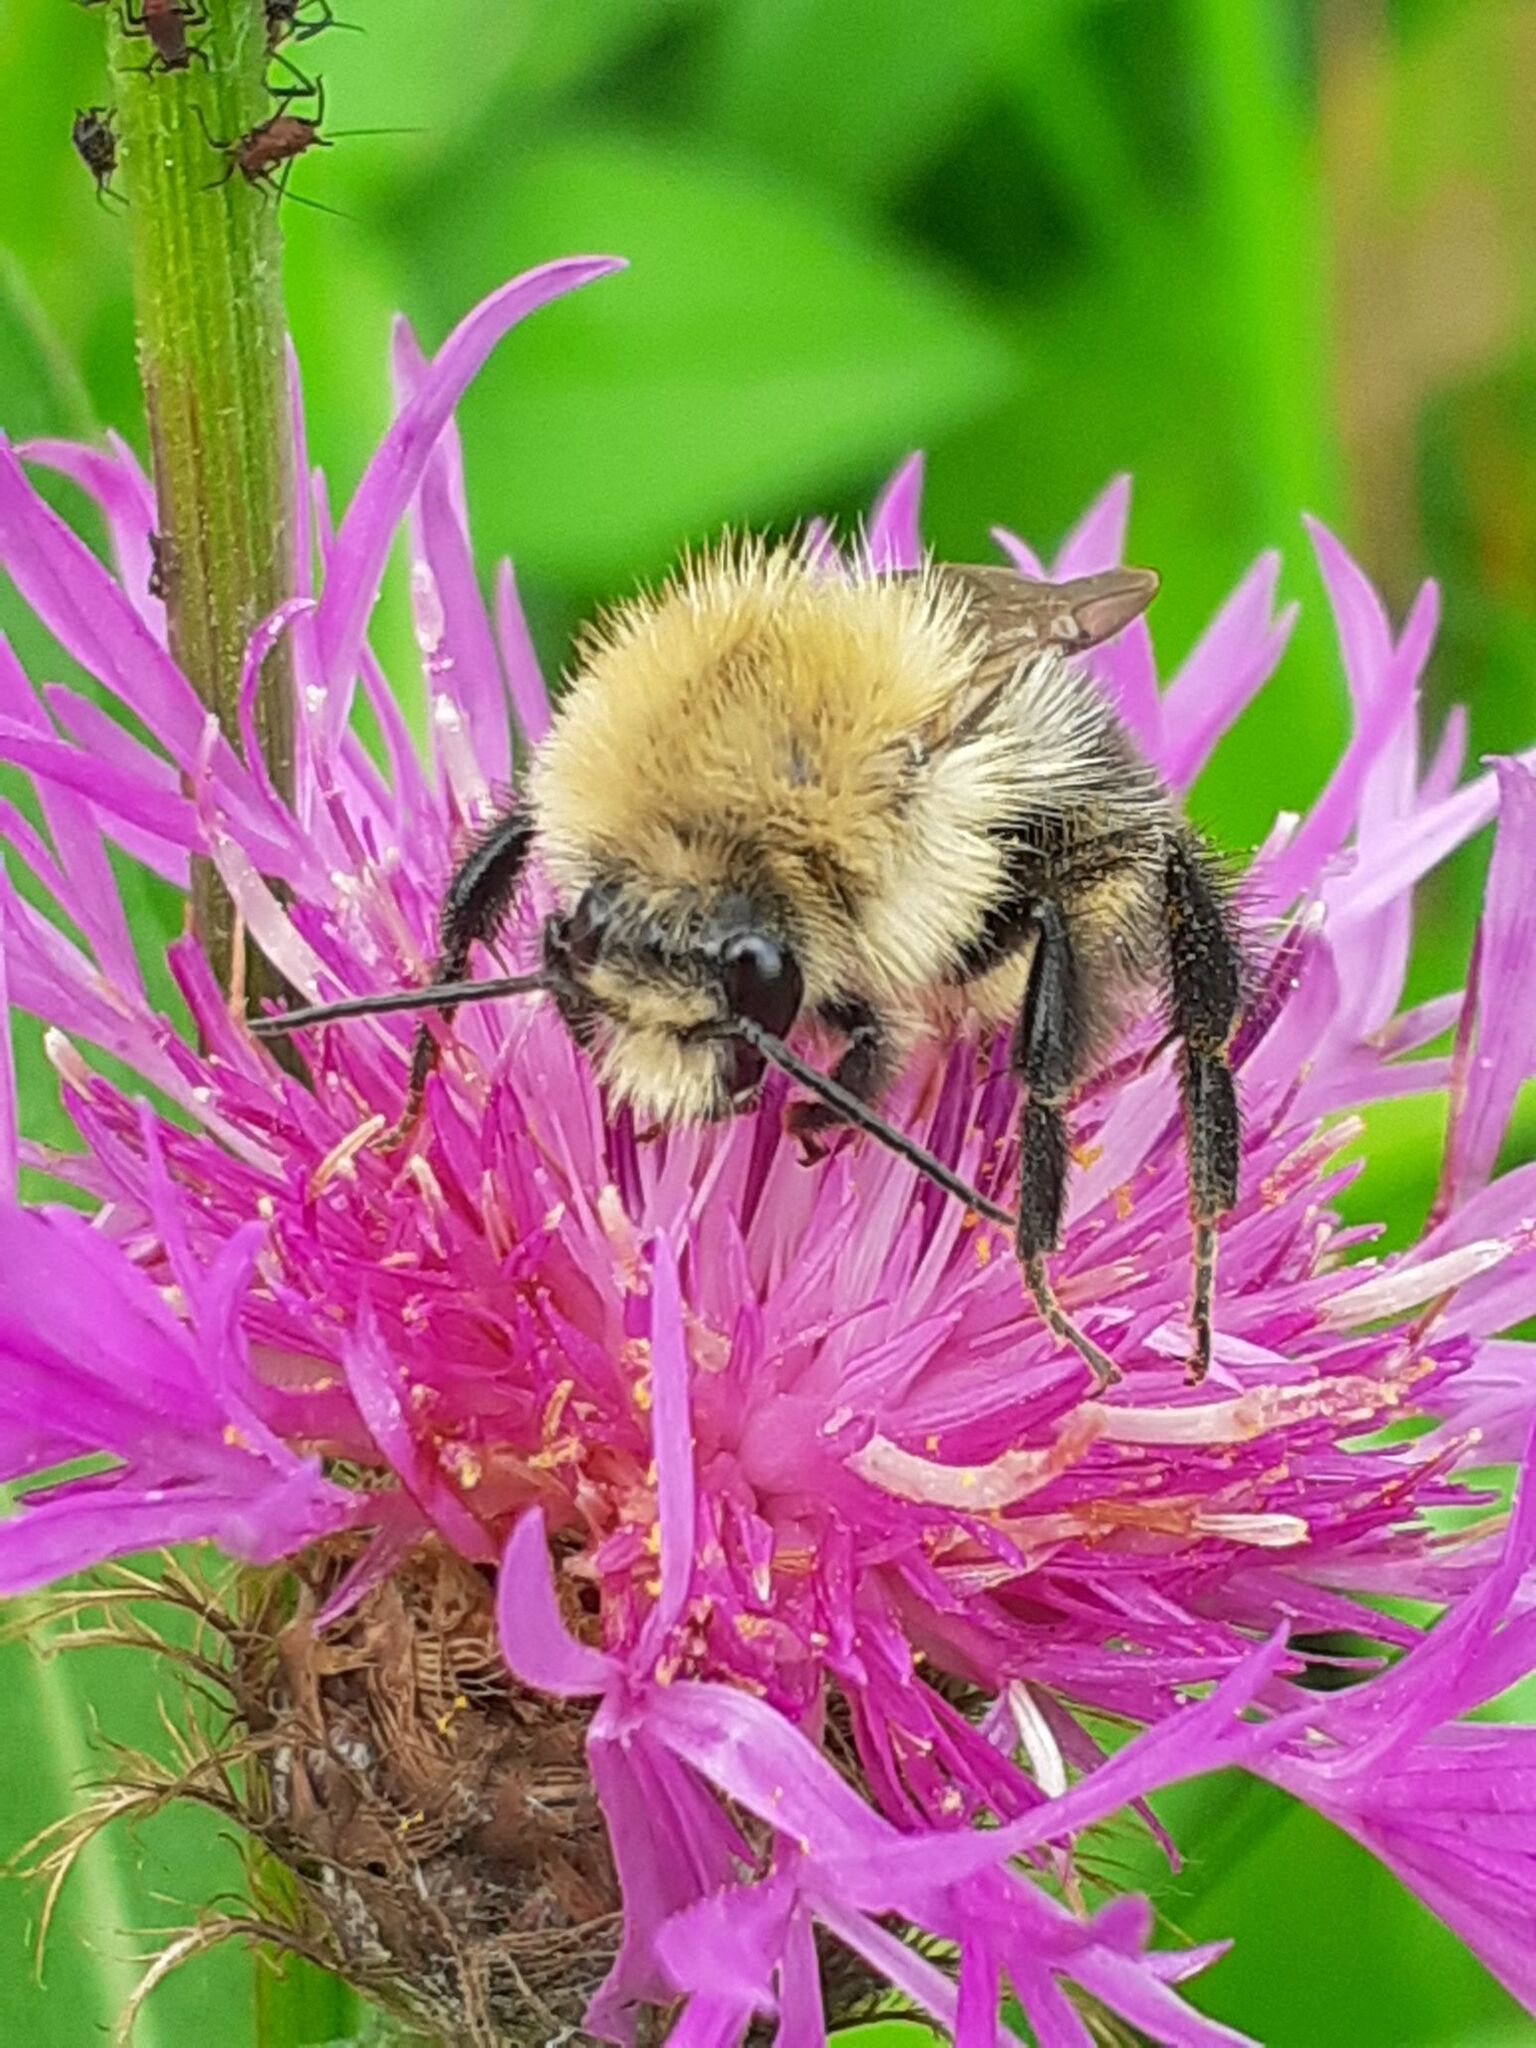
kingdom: Animalia
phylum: Arthropoda
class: Insecta
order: Hymenoptera
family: Apidae
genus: Bombus
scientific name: Bombus pascuorum
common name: Common carder bee
